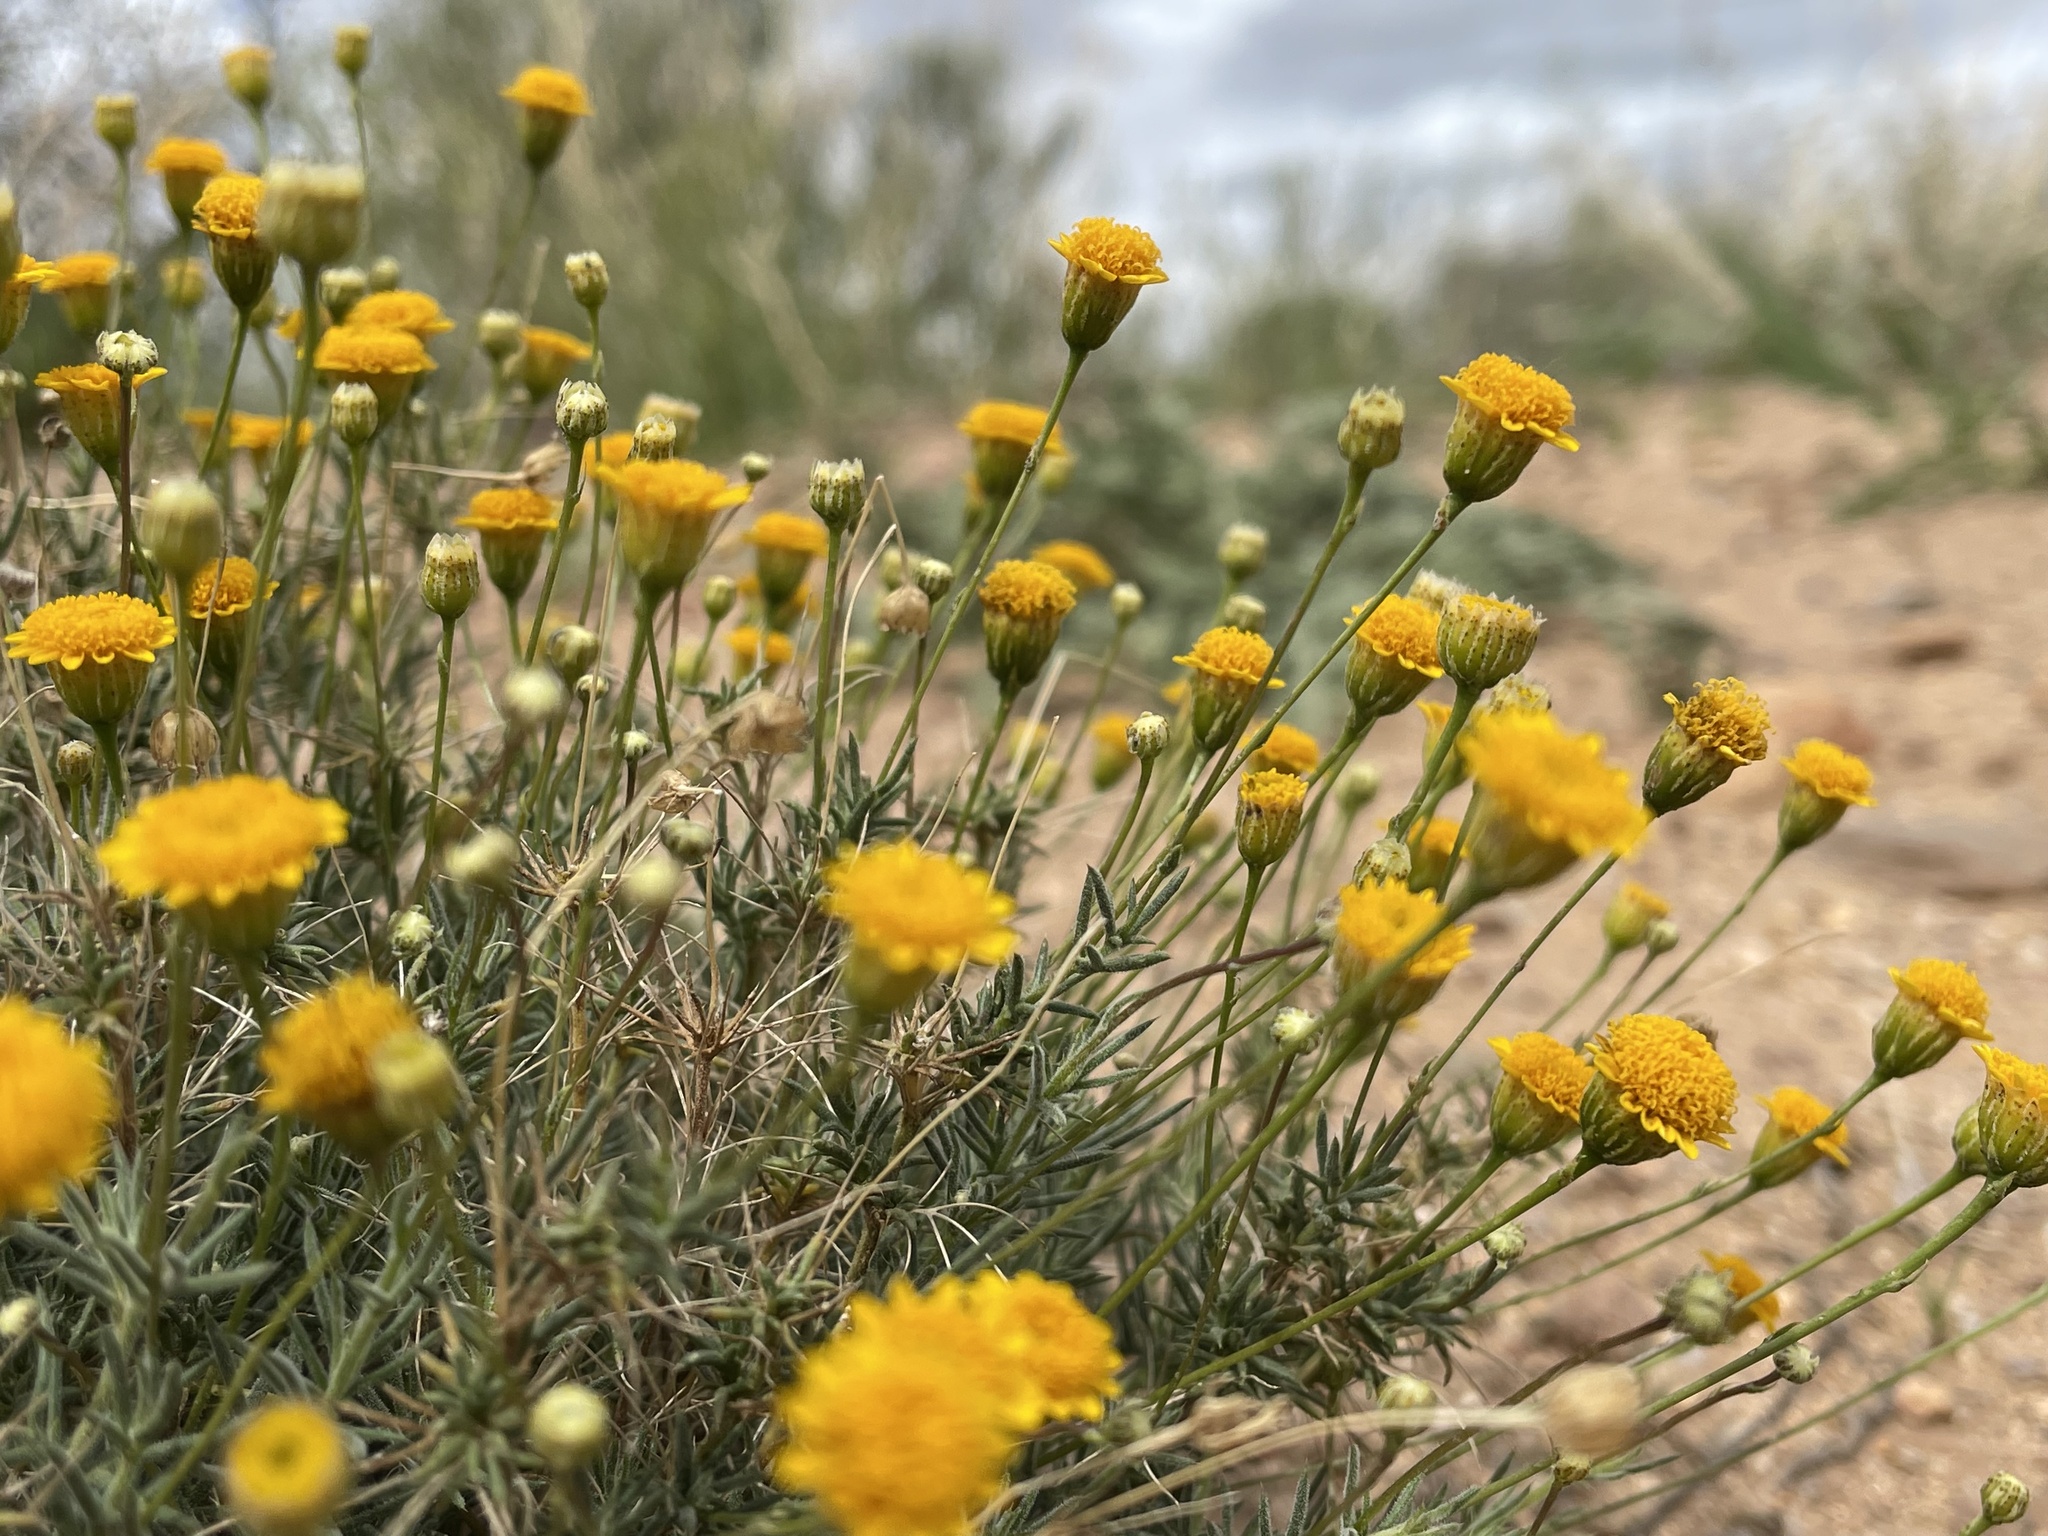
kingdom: Plantae
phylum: Tracheophyta
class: Magnoliopsida
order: Asterales
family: Asteraceae
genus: Thymophylla
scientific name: Thymophylla pentachaeta
